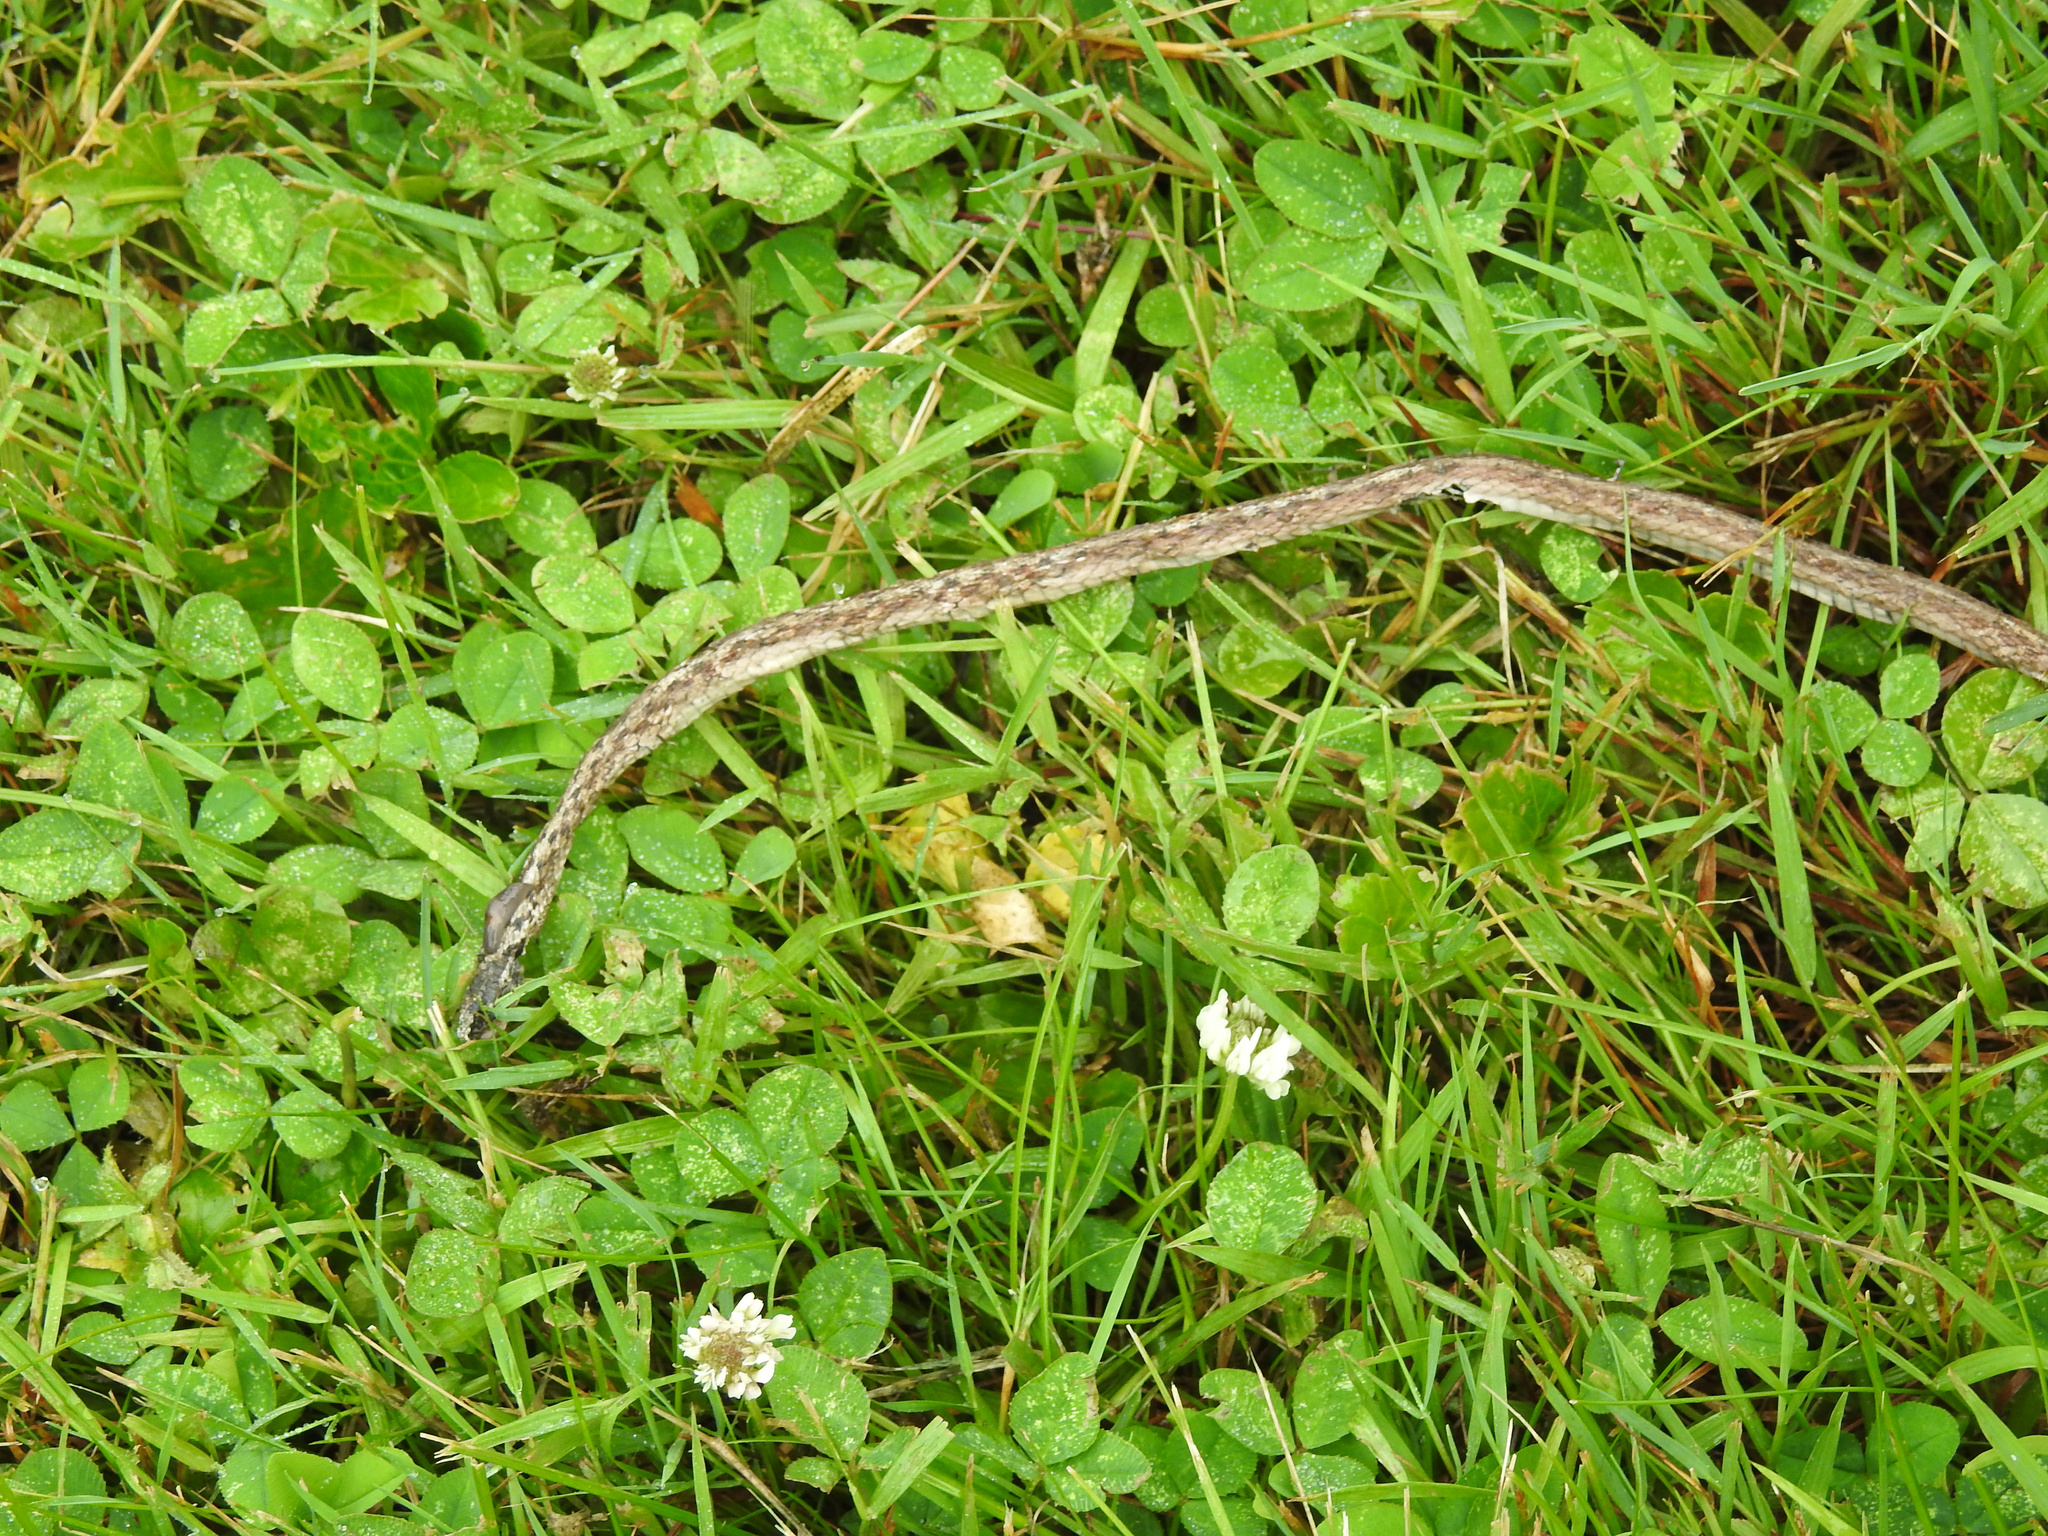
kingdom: Animalia
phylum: Chordata
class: Squamata
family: Colubridae
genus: Storeria
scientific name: Storeria dekayi
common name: (dekay’s) brown snake
